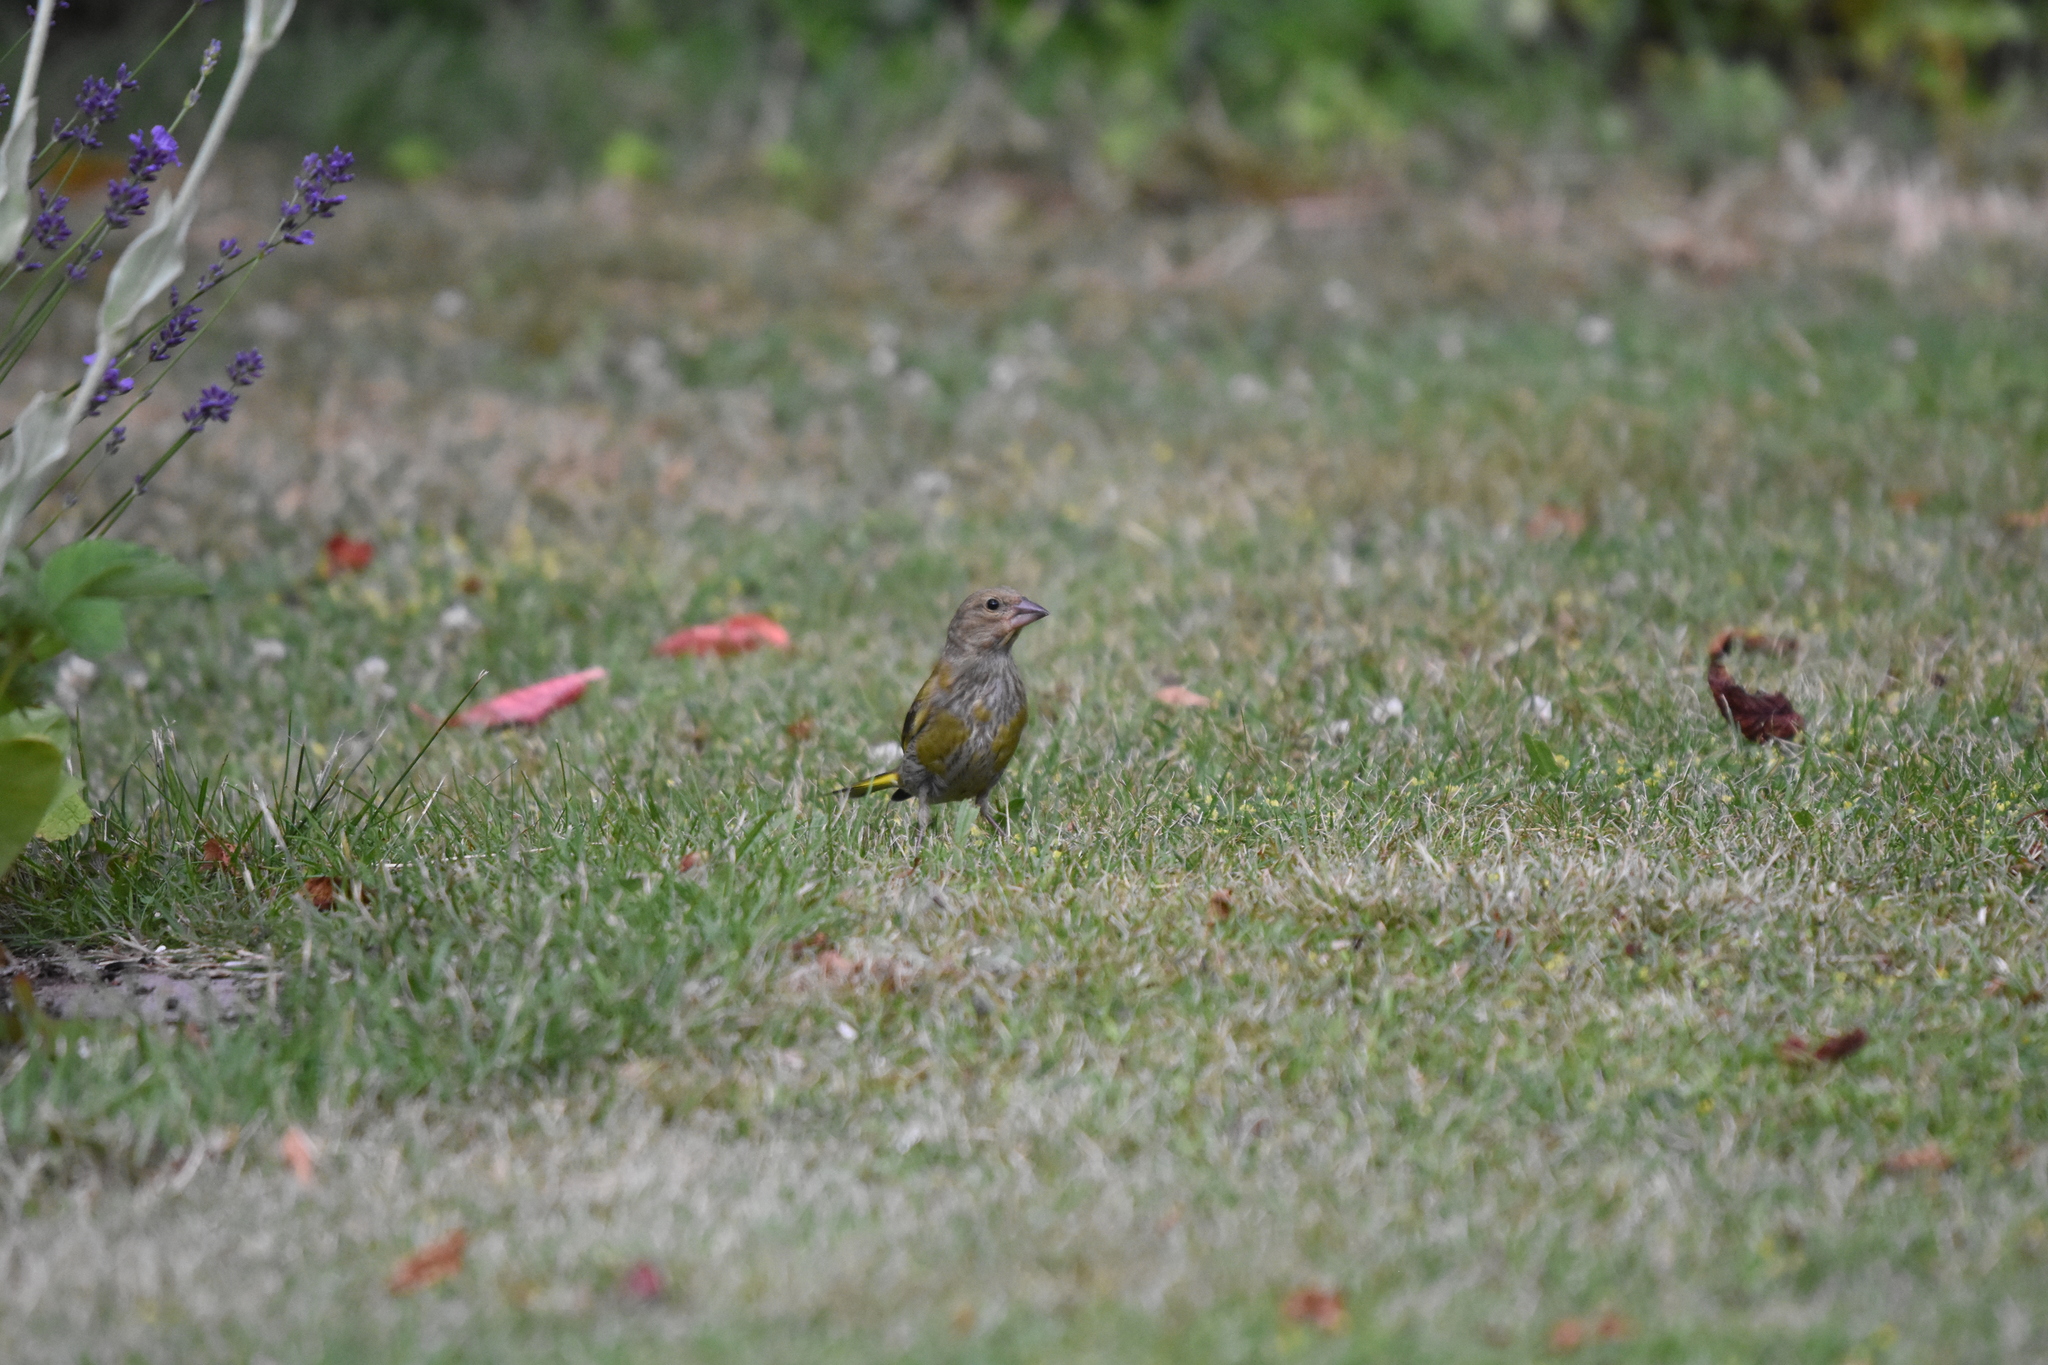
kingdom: Plantae
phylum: Tracheophyta
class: Liliopsida
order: Poales
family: Poaceae
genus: Chloris
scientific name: Chloris chloris
